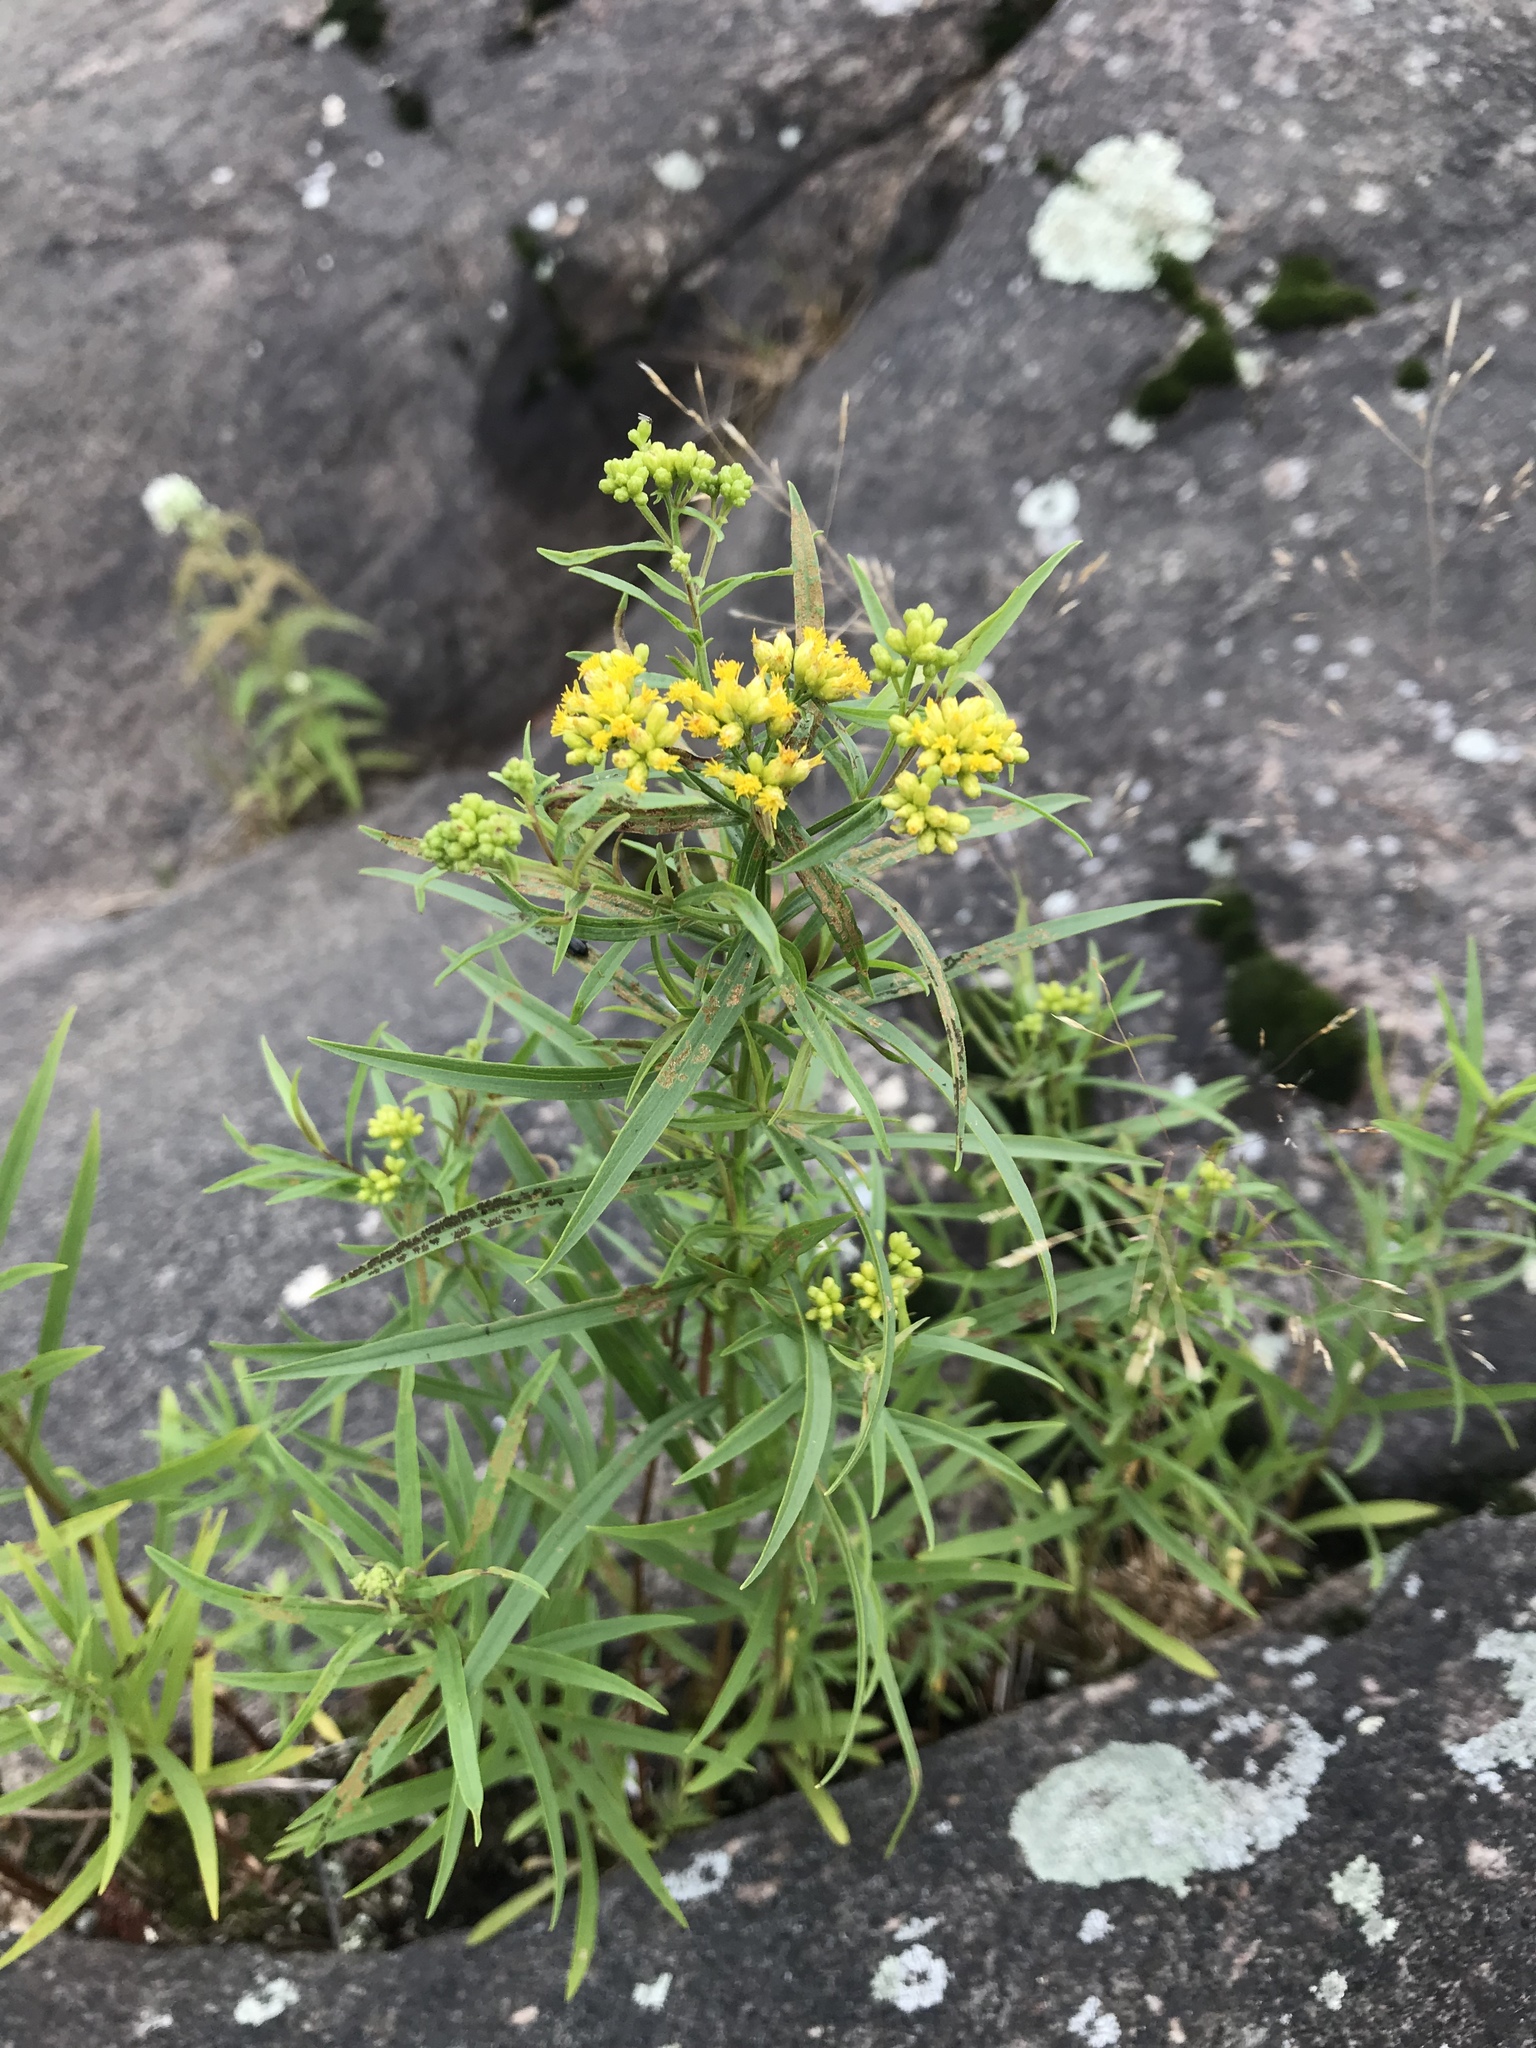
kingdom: Plantae
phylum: Tracheophyta
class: Magnoliopsida
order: Asterales
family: Asteraceae
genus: Euthamia
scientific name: Euthamia graminifolia
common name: Common goldentop
